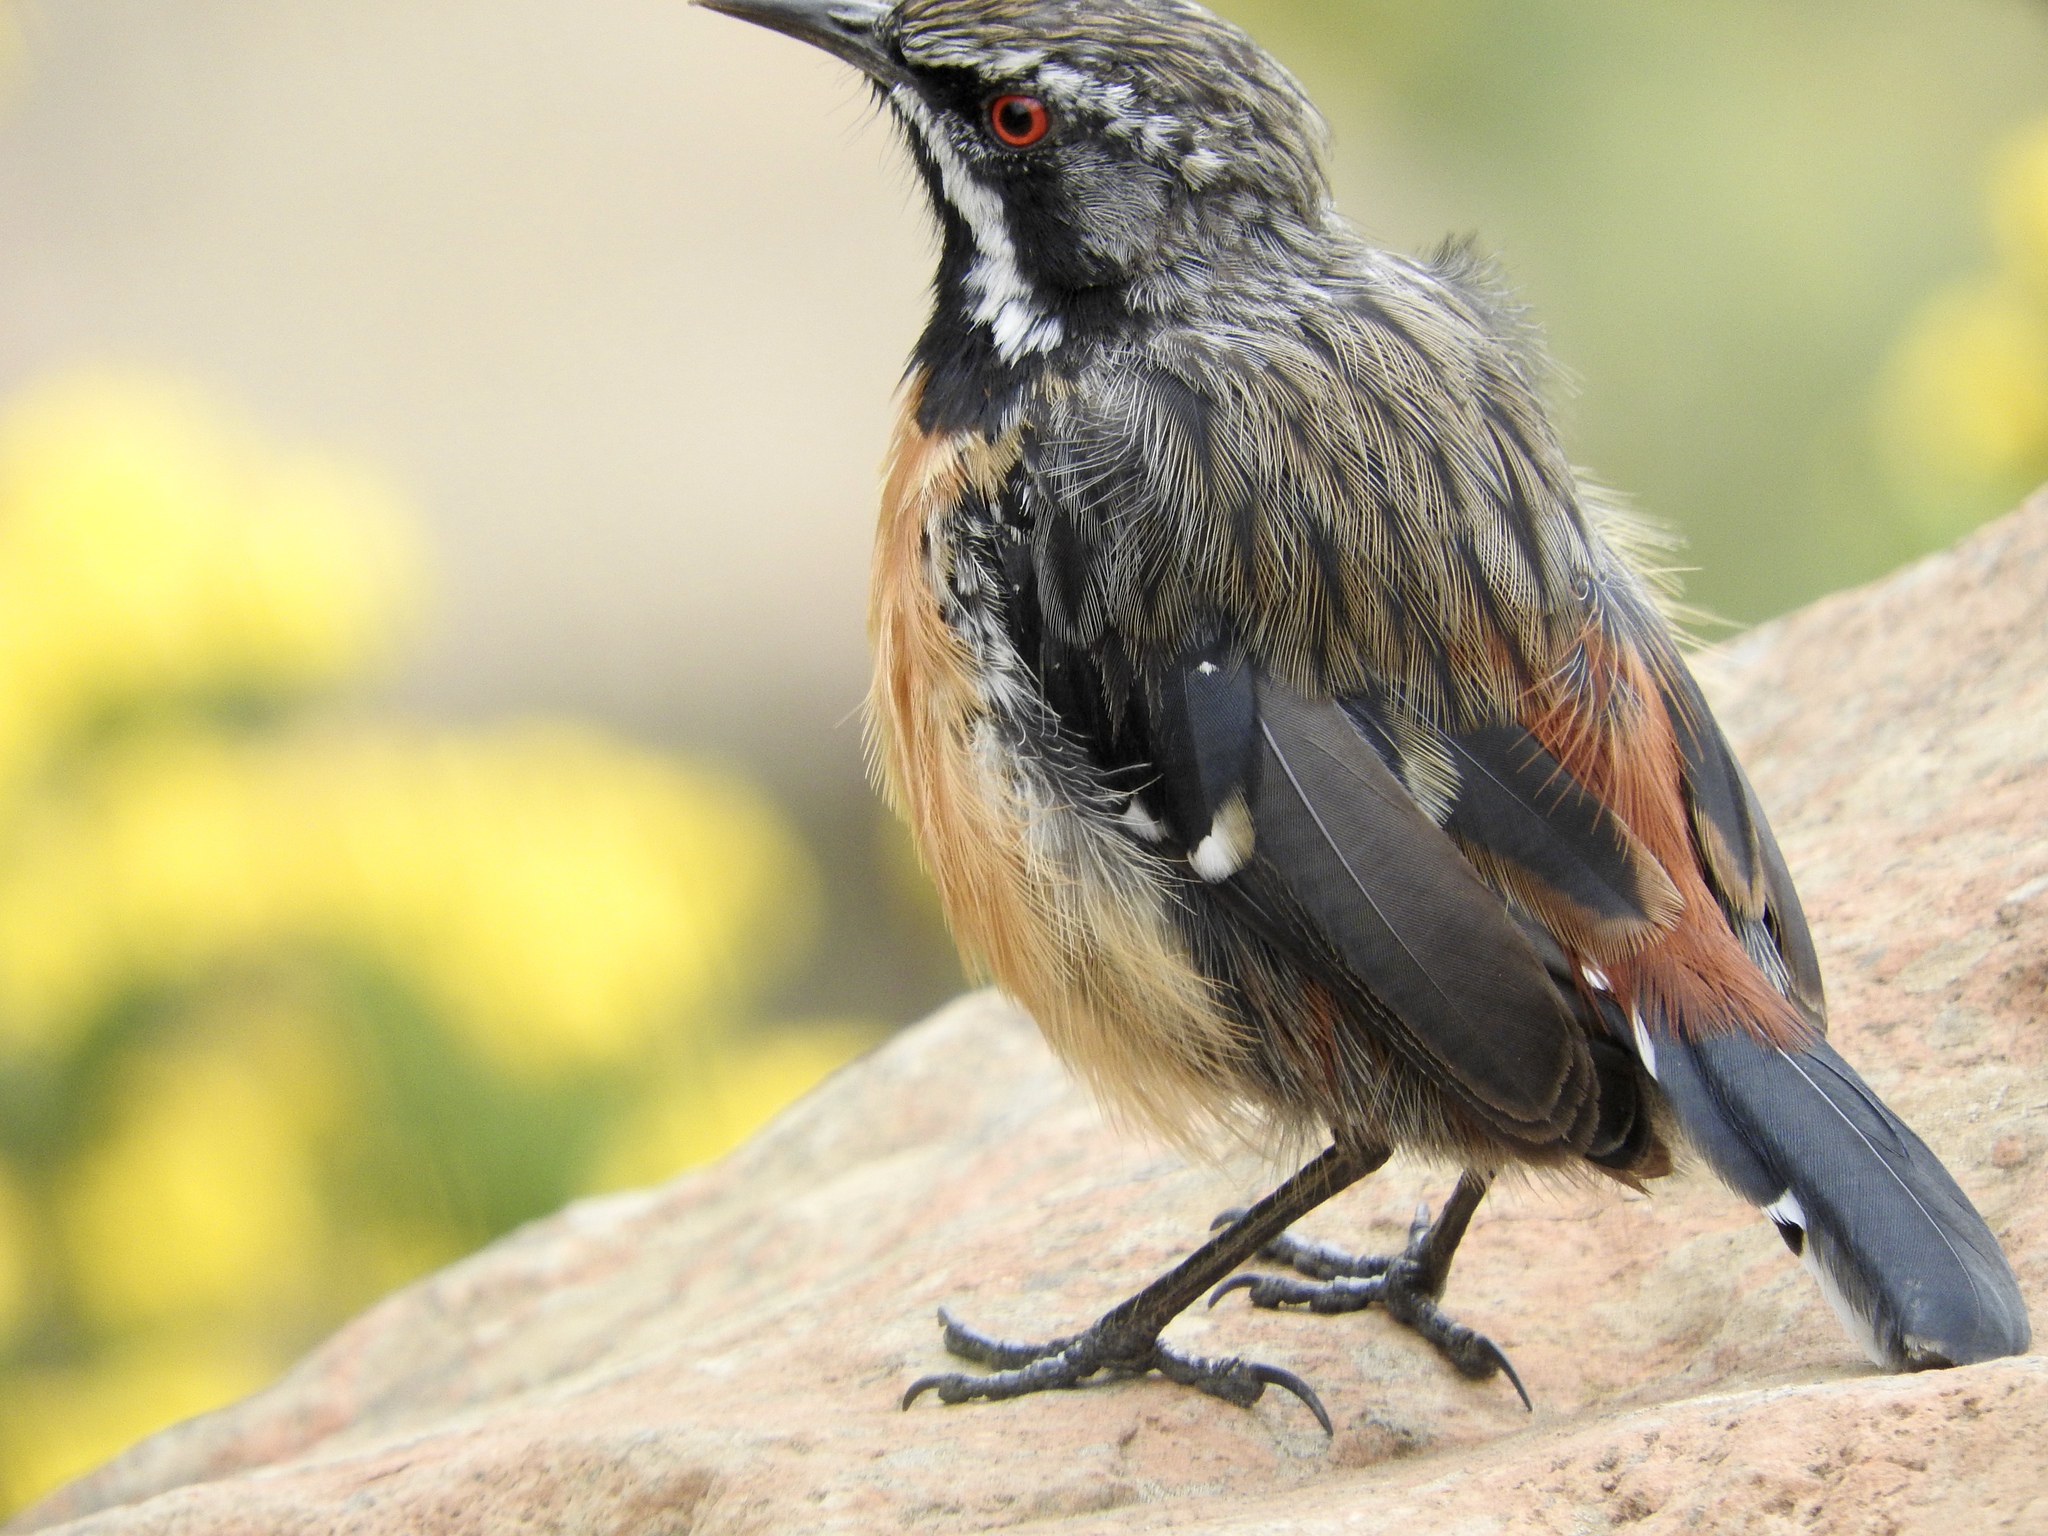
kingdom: Animalia
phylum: Chordata
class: Aves
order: Passeriformes
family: Chaetopidae
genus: Chaetops
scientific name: Chaetops aurantius
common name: Drakensberg rockjumper
